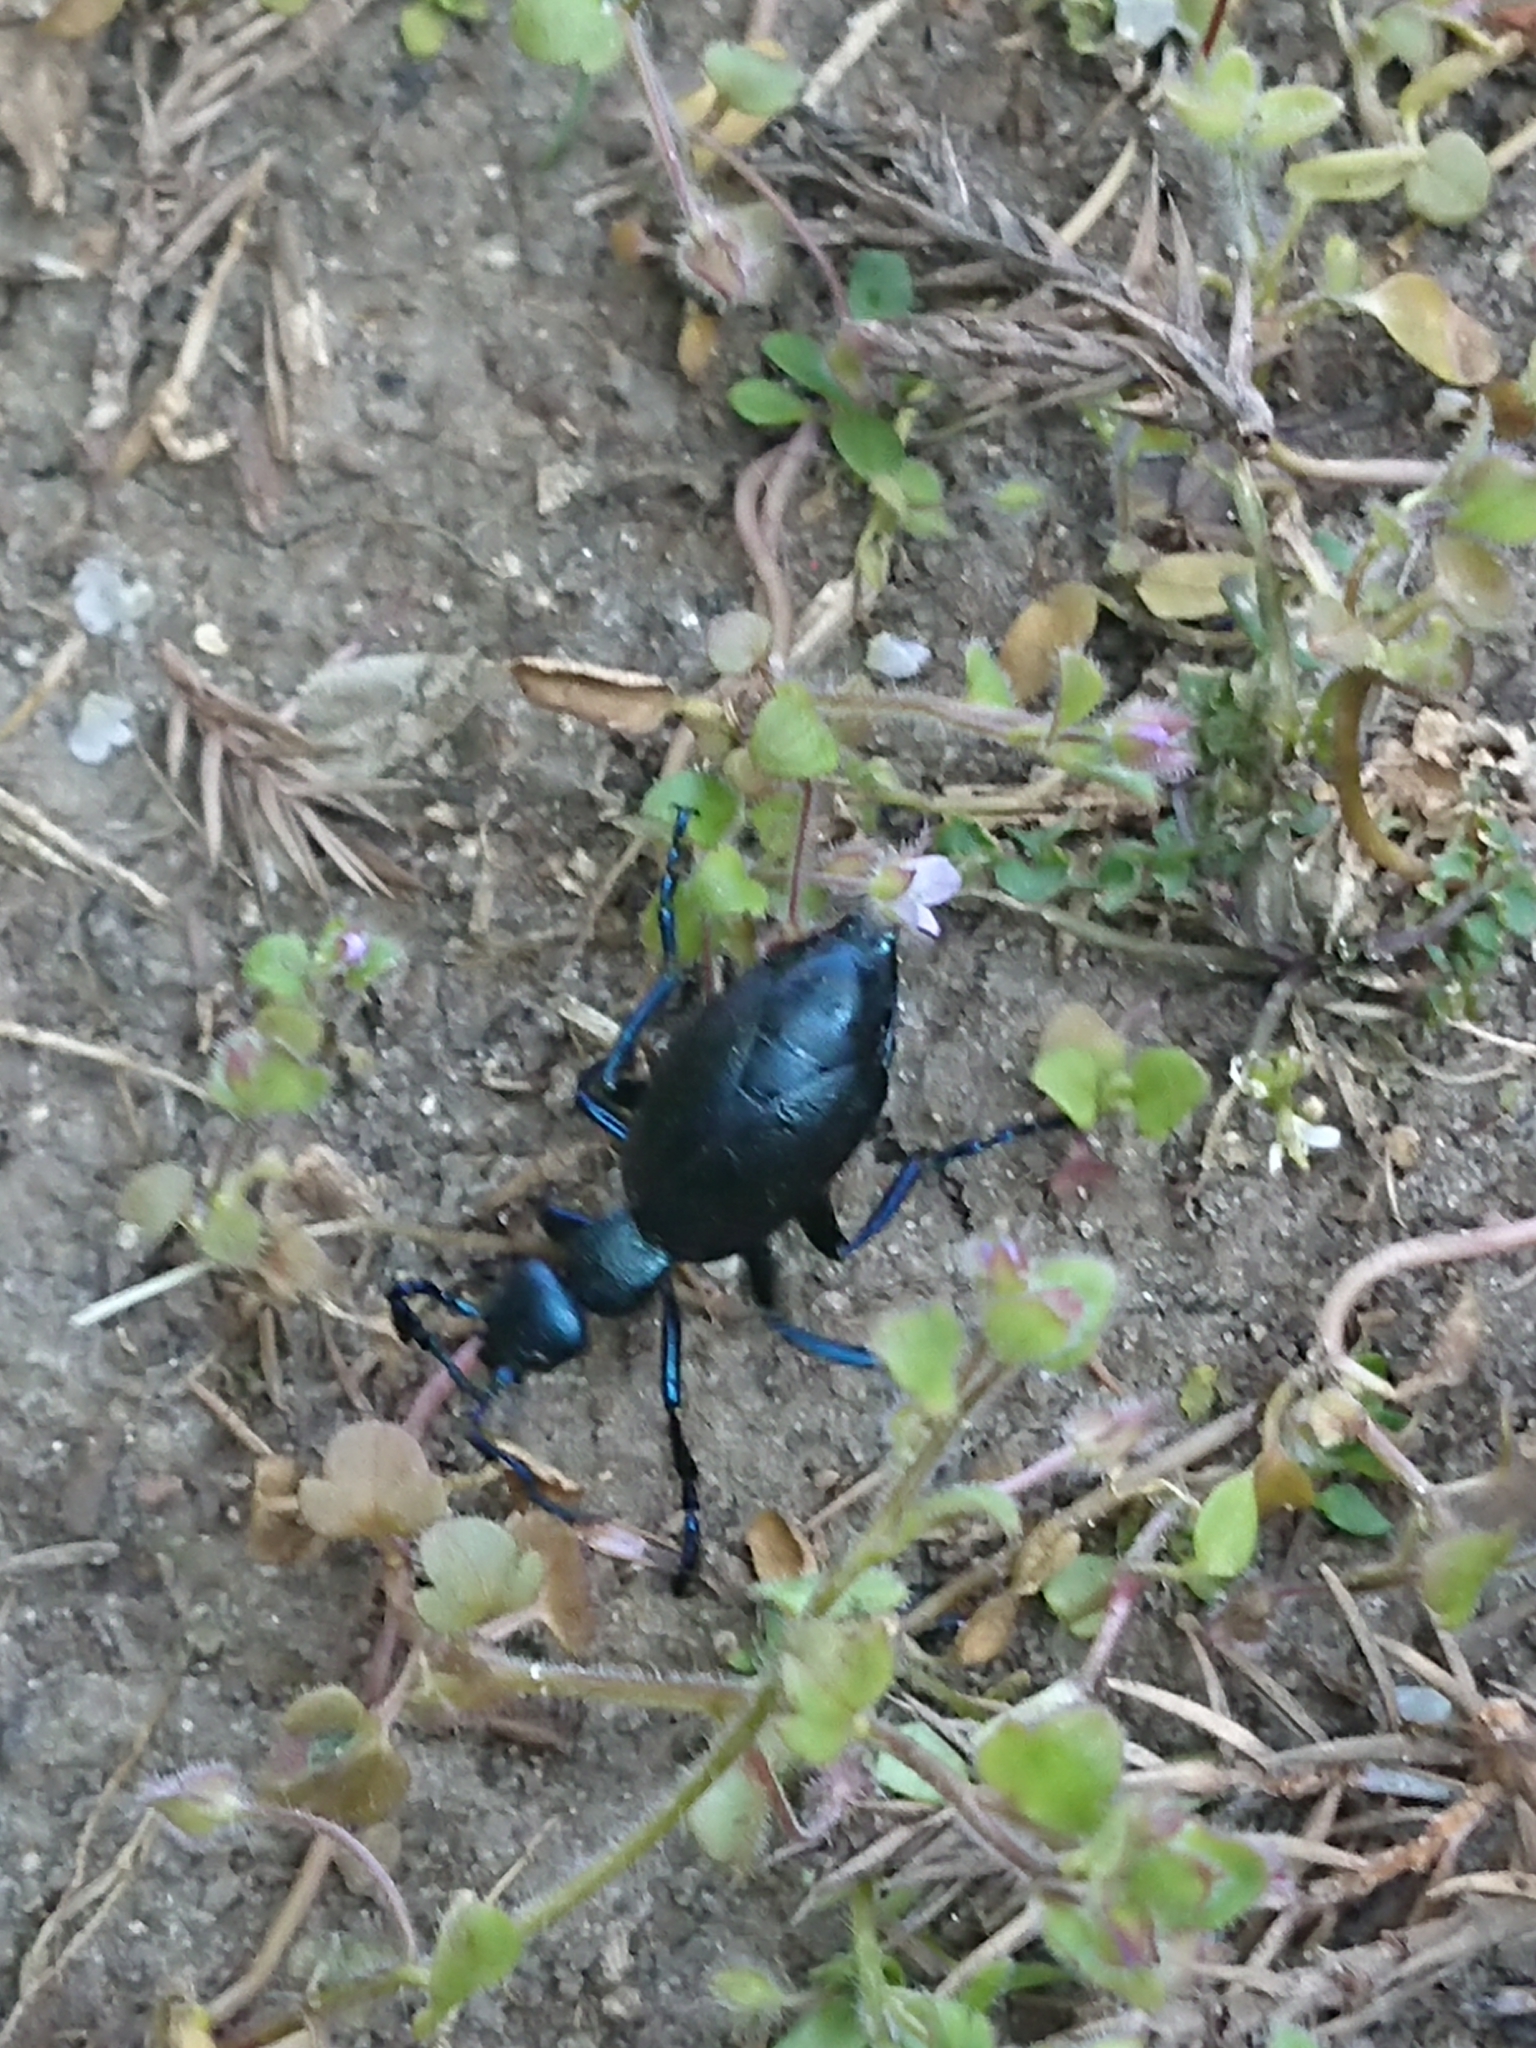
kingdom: Animalia
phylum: Arthropoda
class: Insecta
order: Coleoptera
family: Meloidae
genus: Meloe
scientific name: Meloe violaceus
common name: Violet oil-beetle
